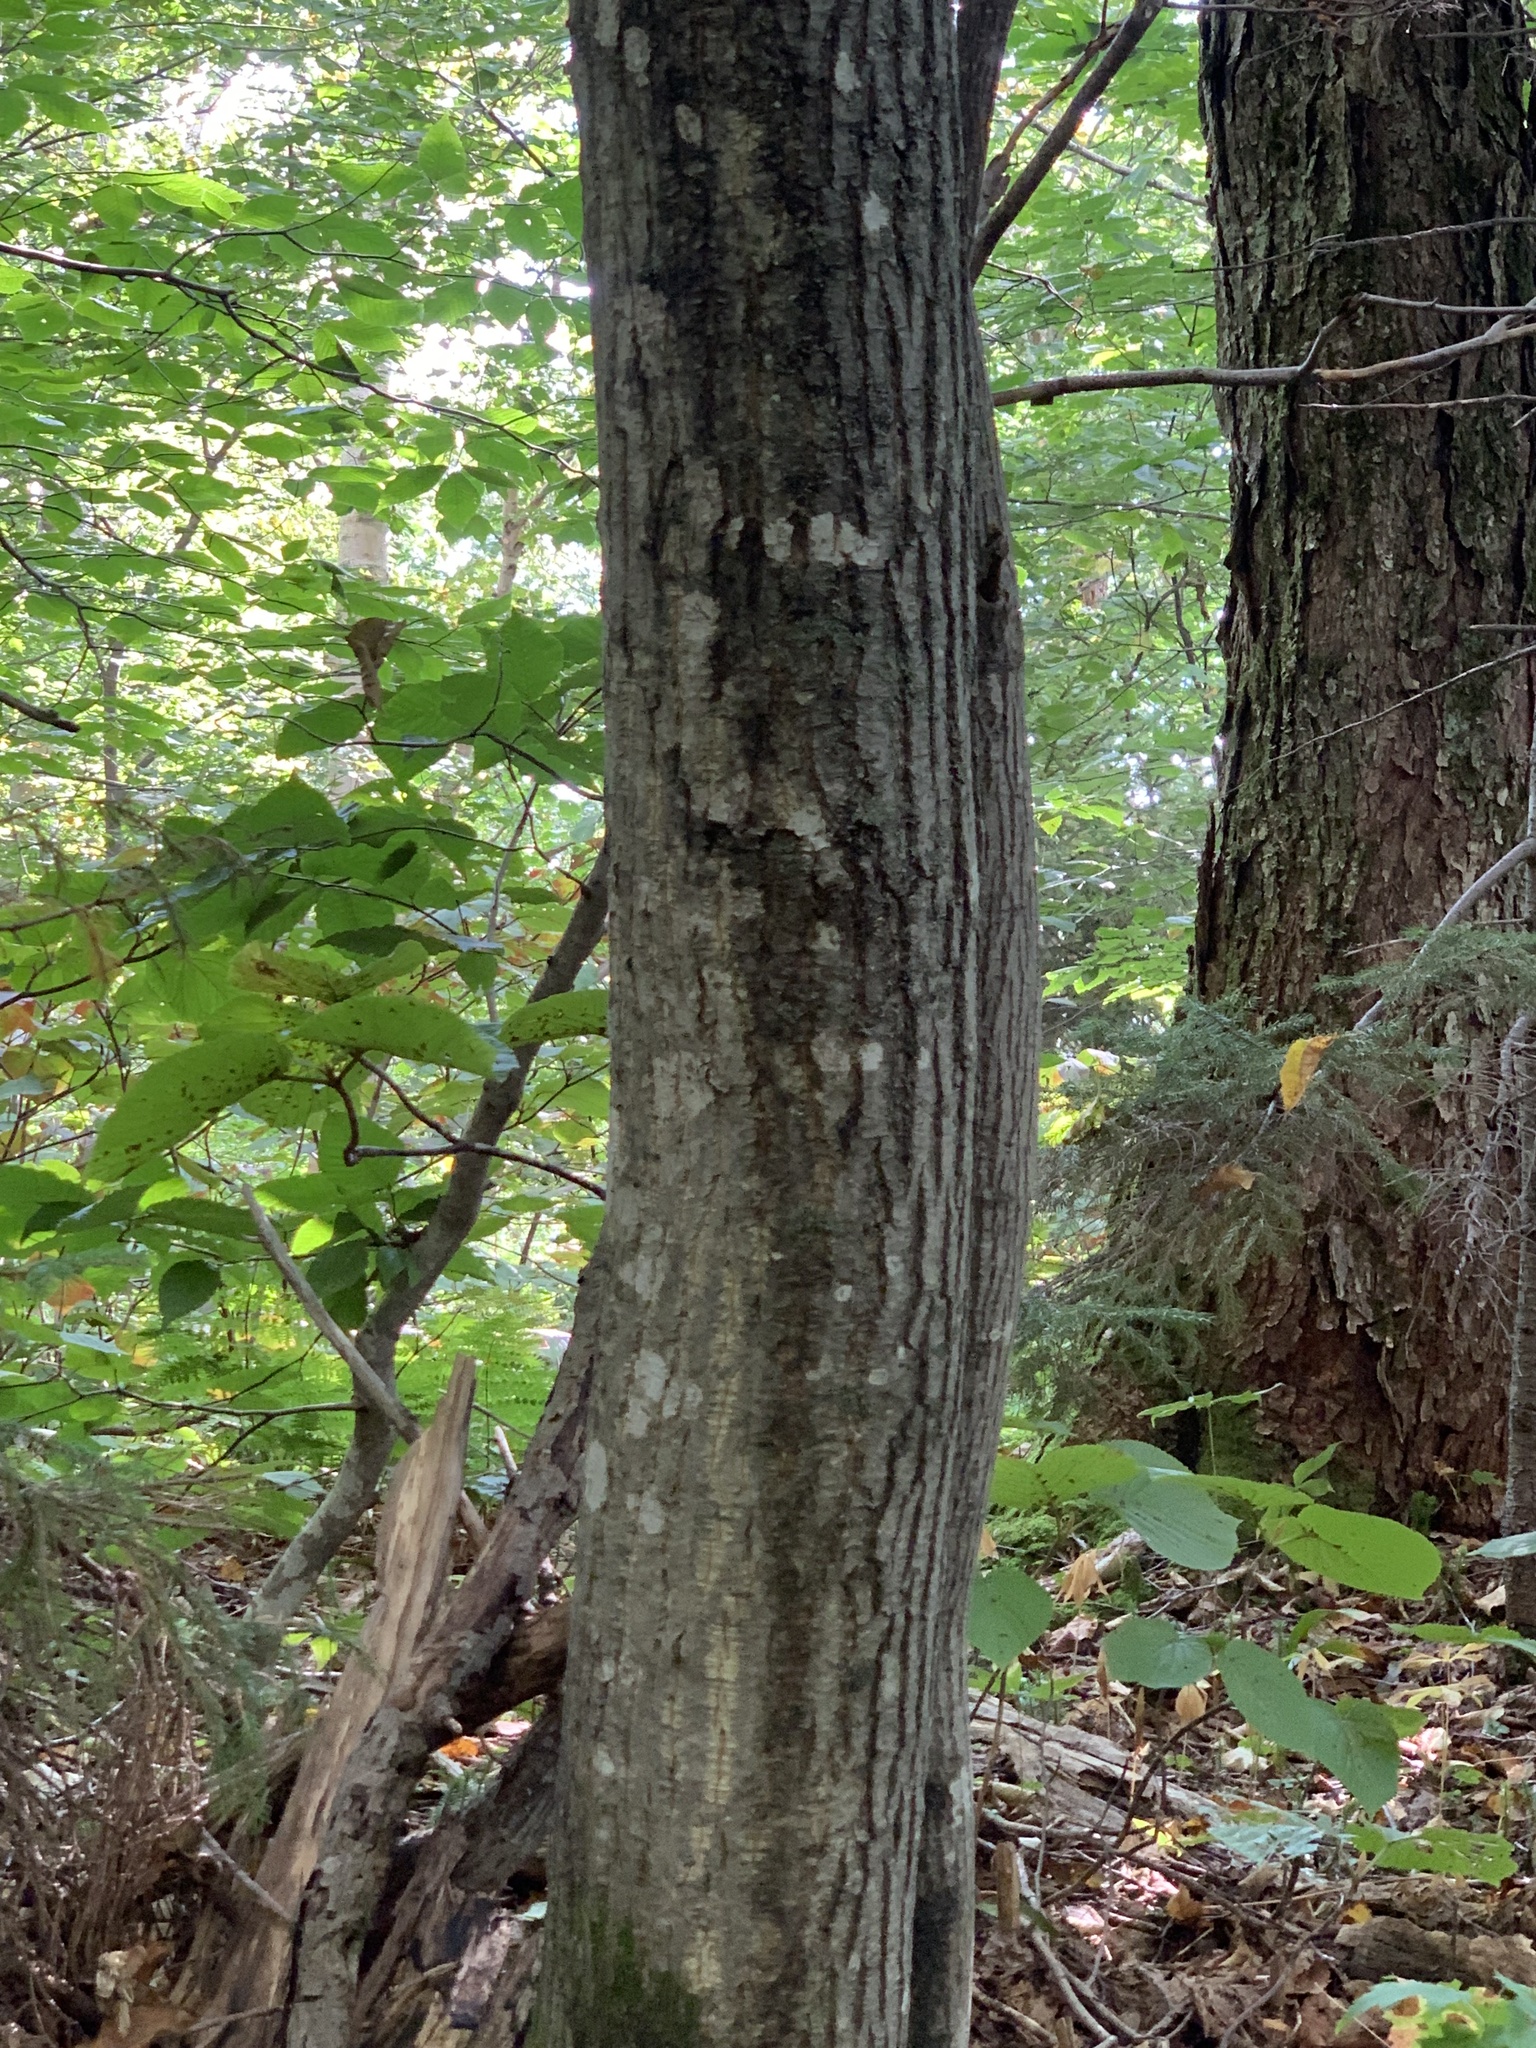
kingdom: Plantae
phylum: Tracheophyta
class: Magnoliopsida
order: Sapindales
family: Sapindaceae
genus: Acer
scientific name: Acer pensylvanicum
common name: Moosewood
